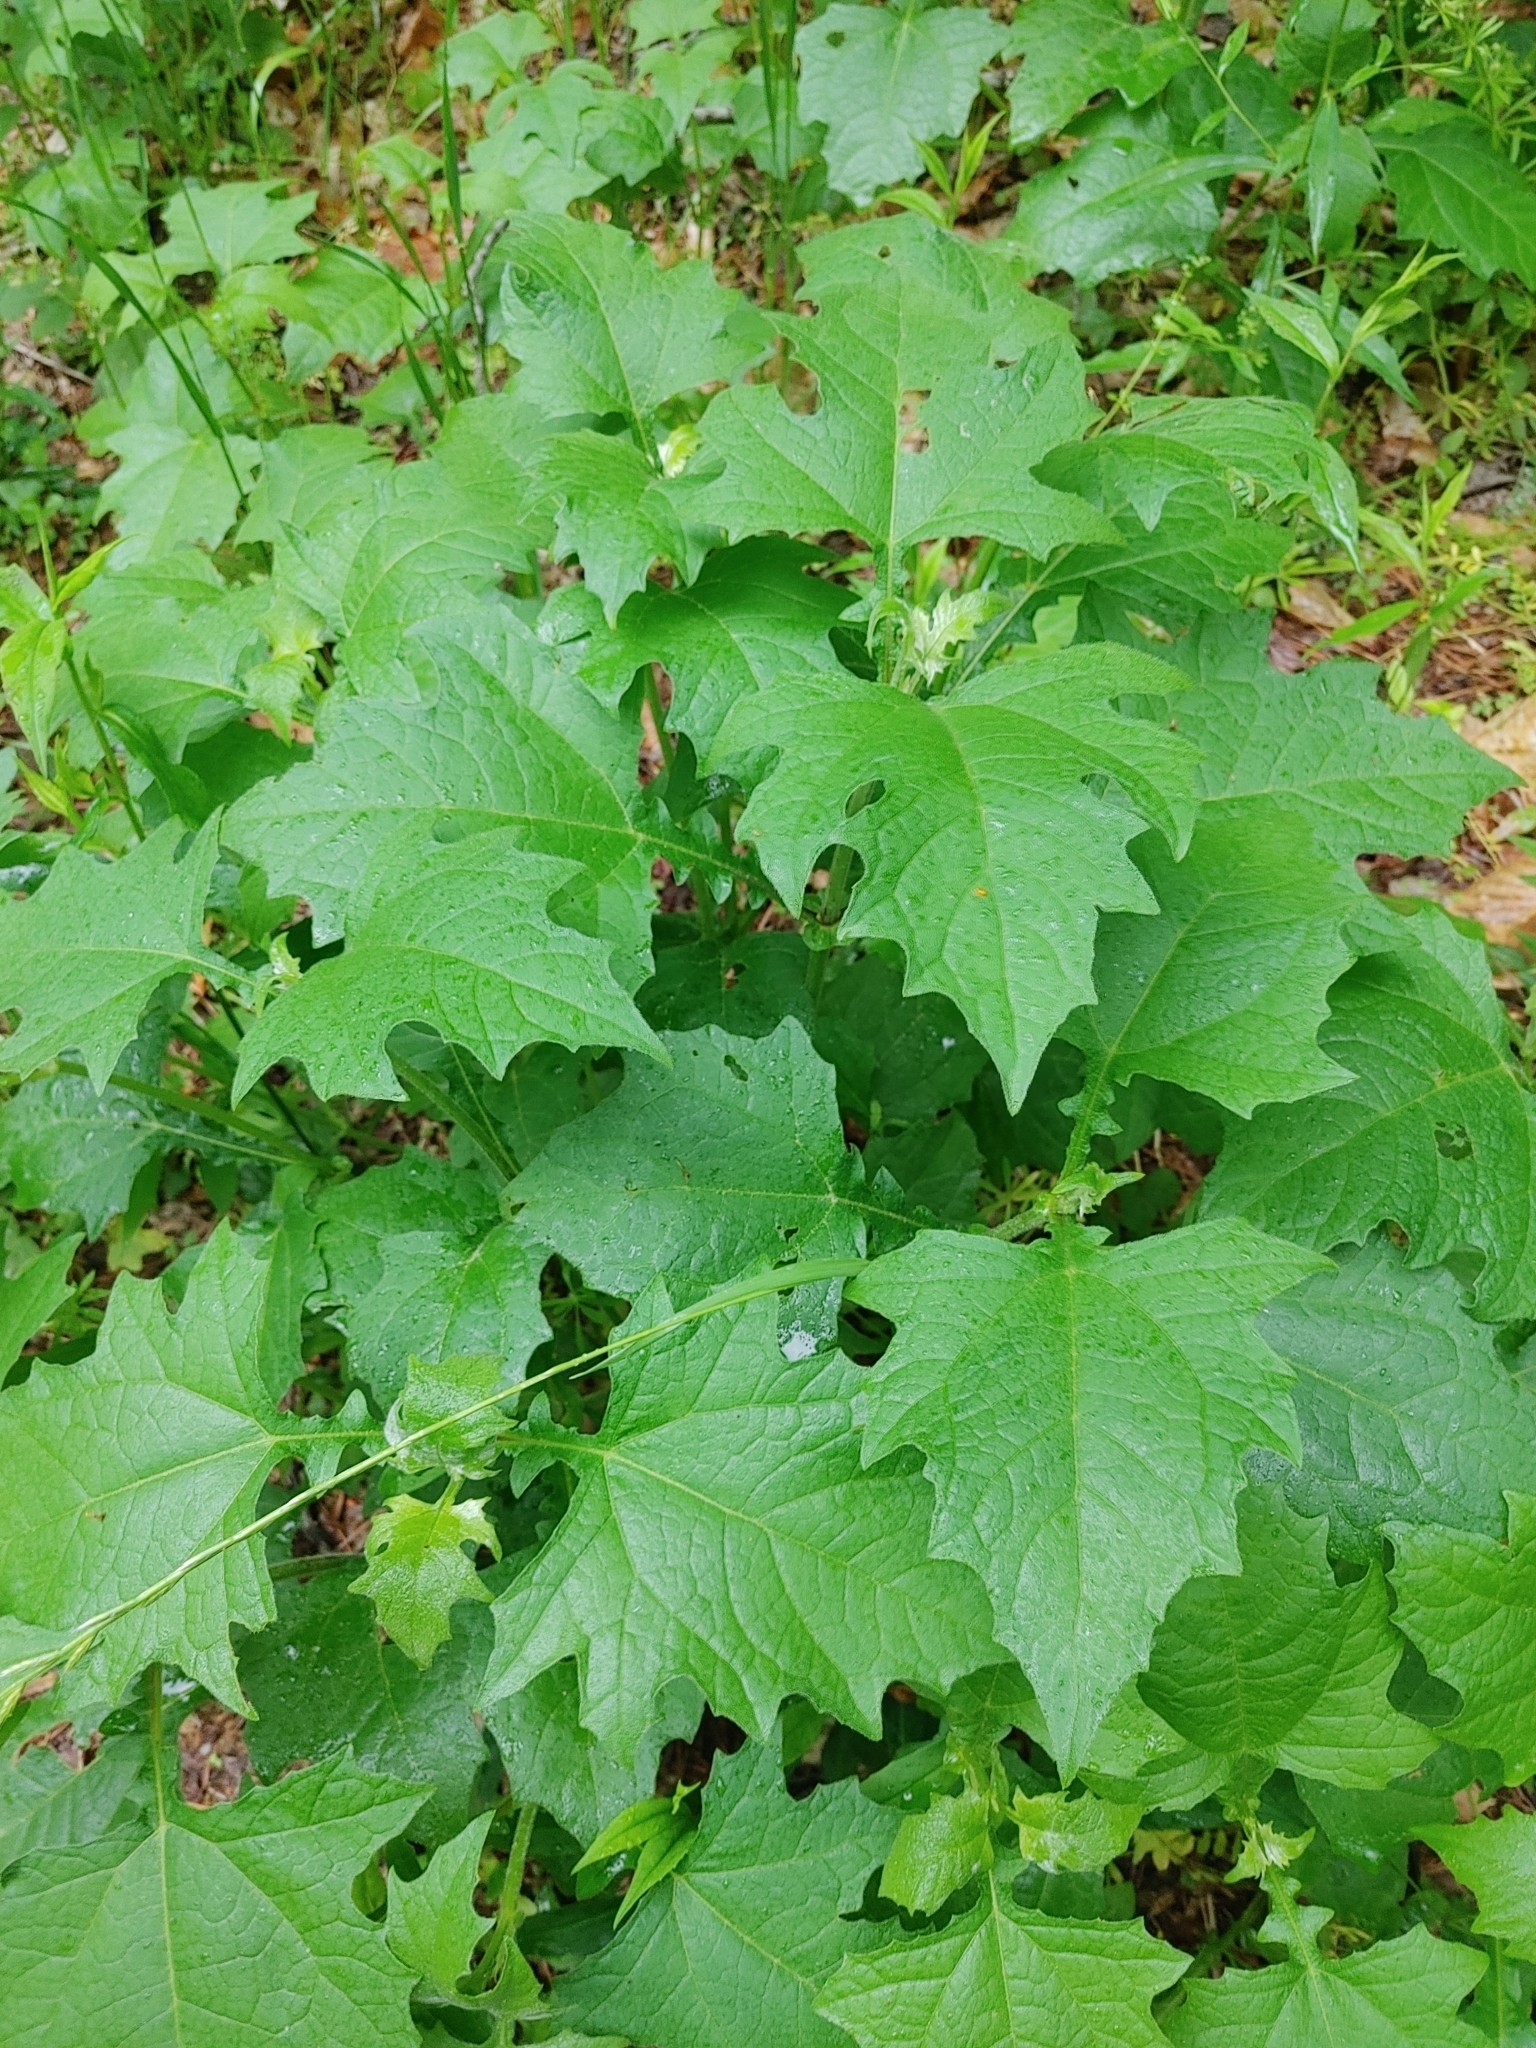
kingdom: Plantae
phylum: Tracheophyta
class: Magnoliopsida
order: Asterales
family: Asteraceae
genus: Smallanthus
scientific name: Smallanthus uvedalia
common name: Bear's-foot
